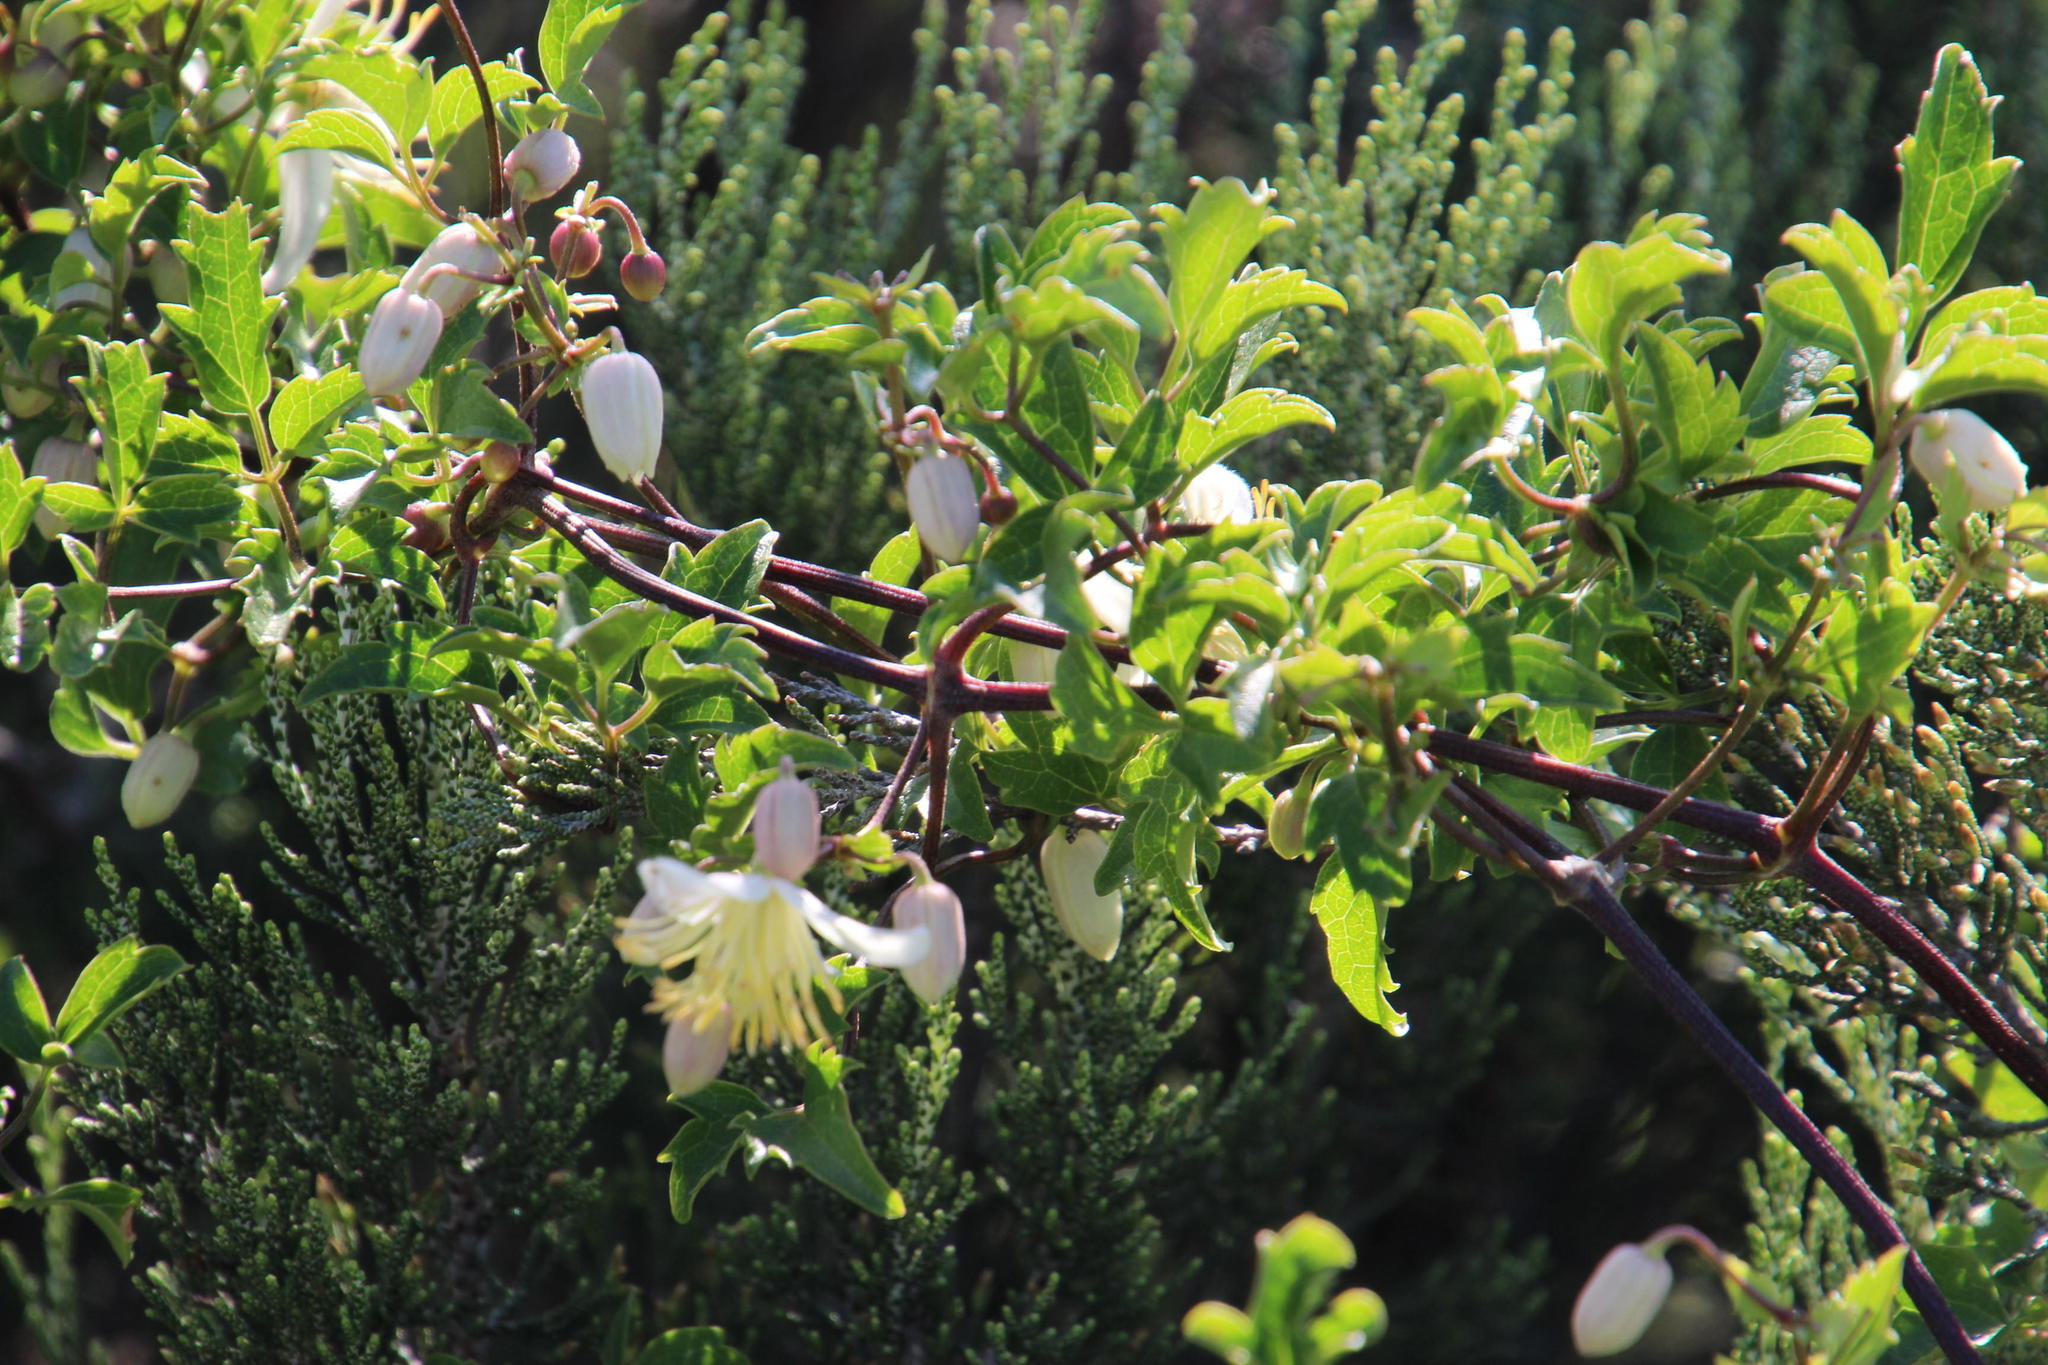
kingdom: Plantae
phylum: Tracheophyta
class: Magnoliopsida
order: Ranunculales
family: Ranunculaceae
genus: Clematis
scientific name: Clematis brachiata
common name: Traveler's-joy
